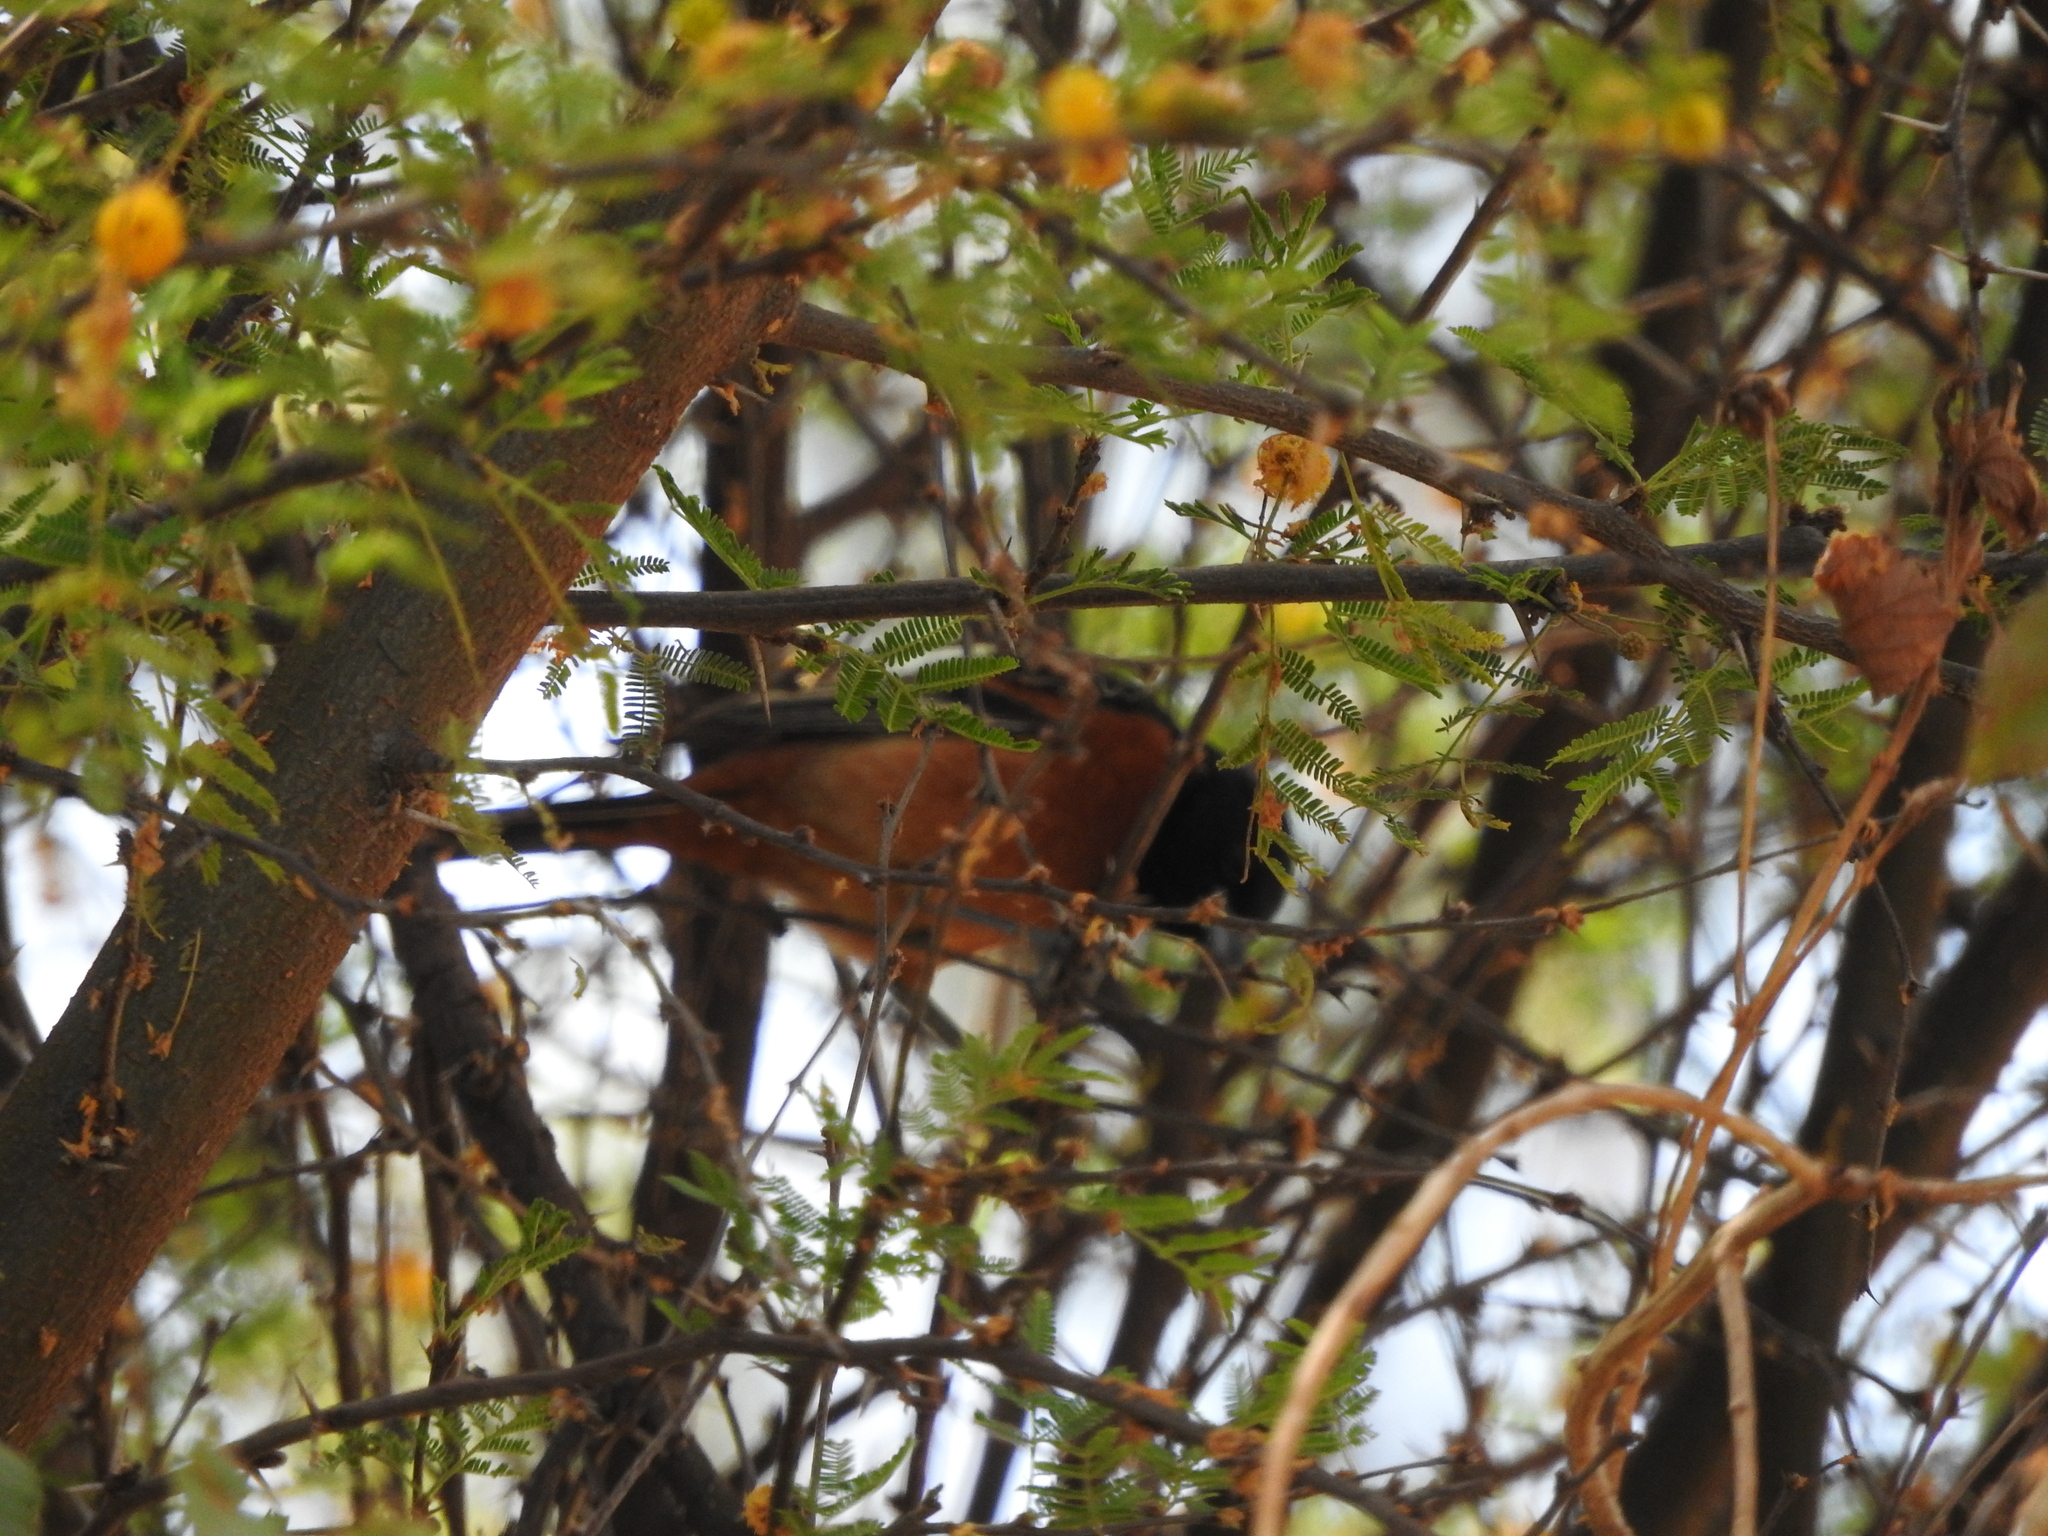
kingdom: Animalia
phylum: Chordata
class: Aves
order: Passeriformes
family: Icteridae
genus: Icterus
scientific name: Icterus spurius
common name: Orchard oriole
